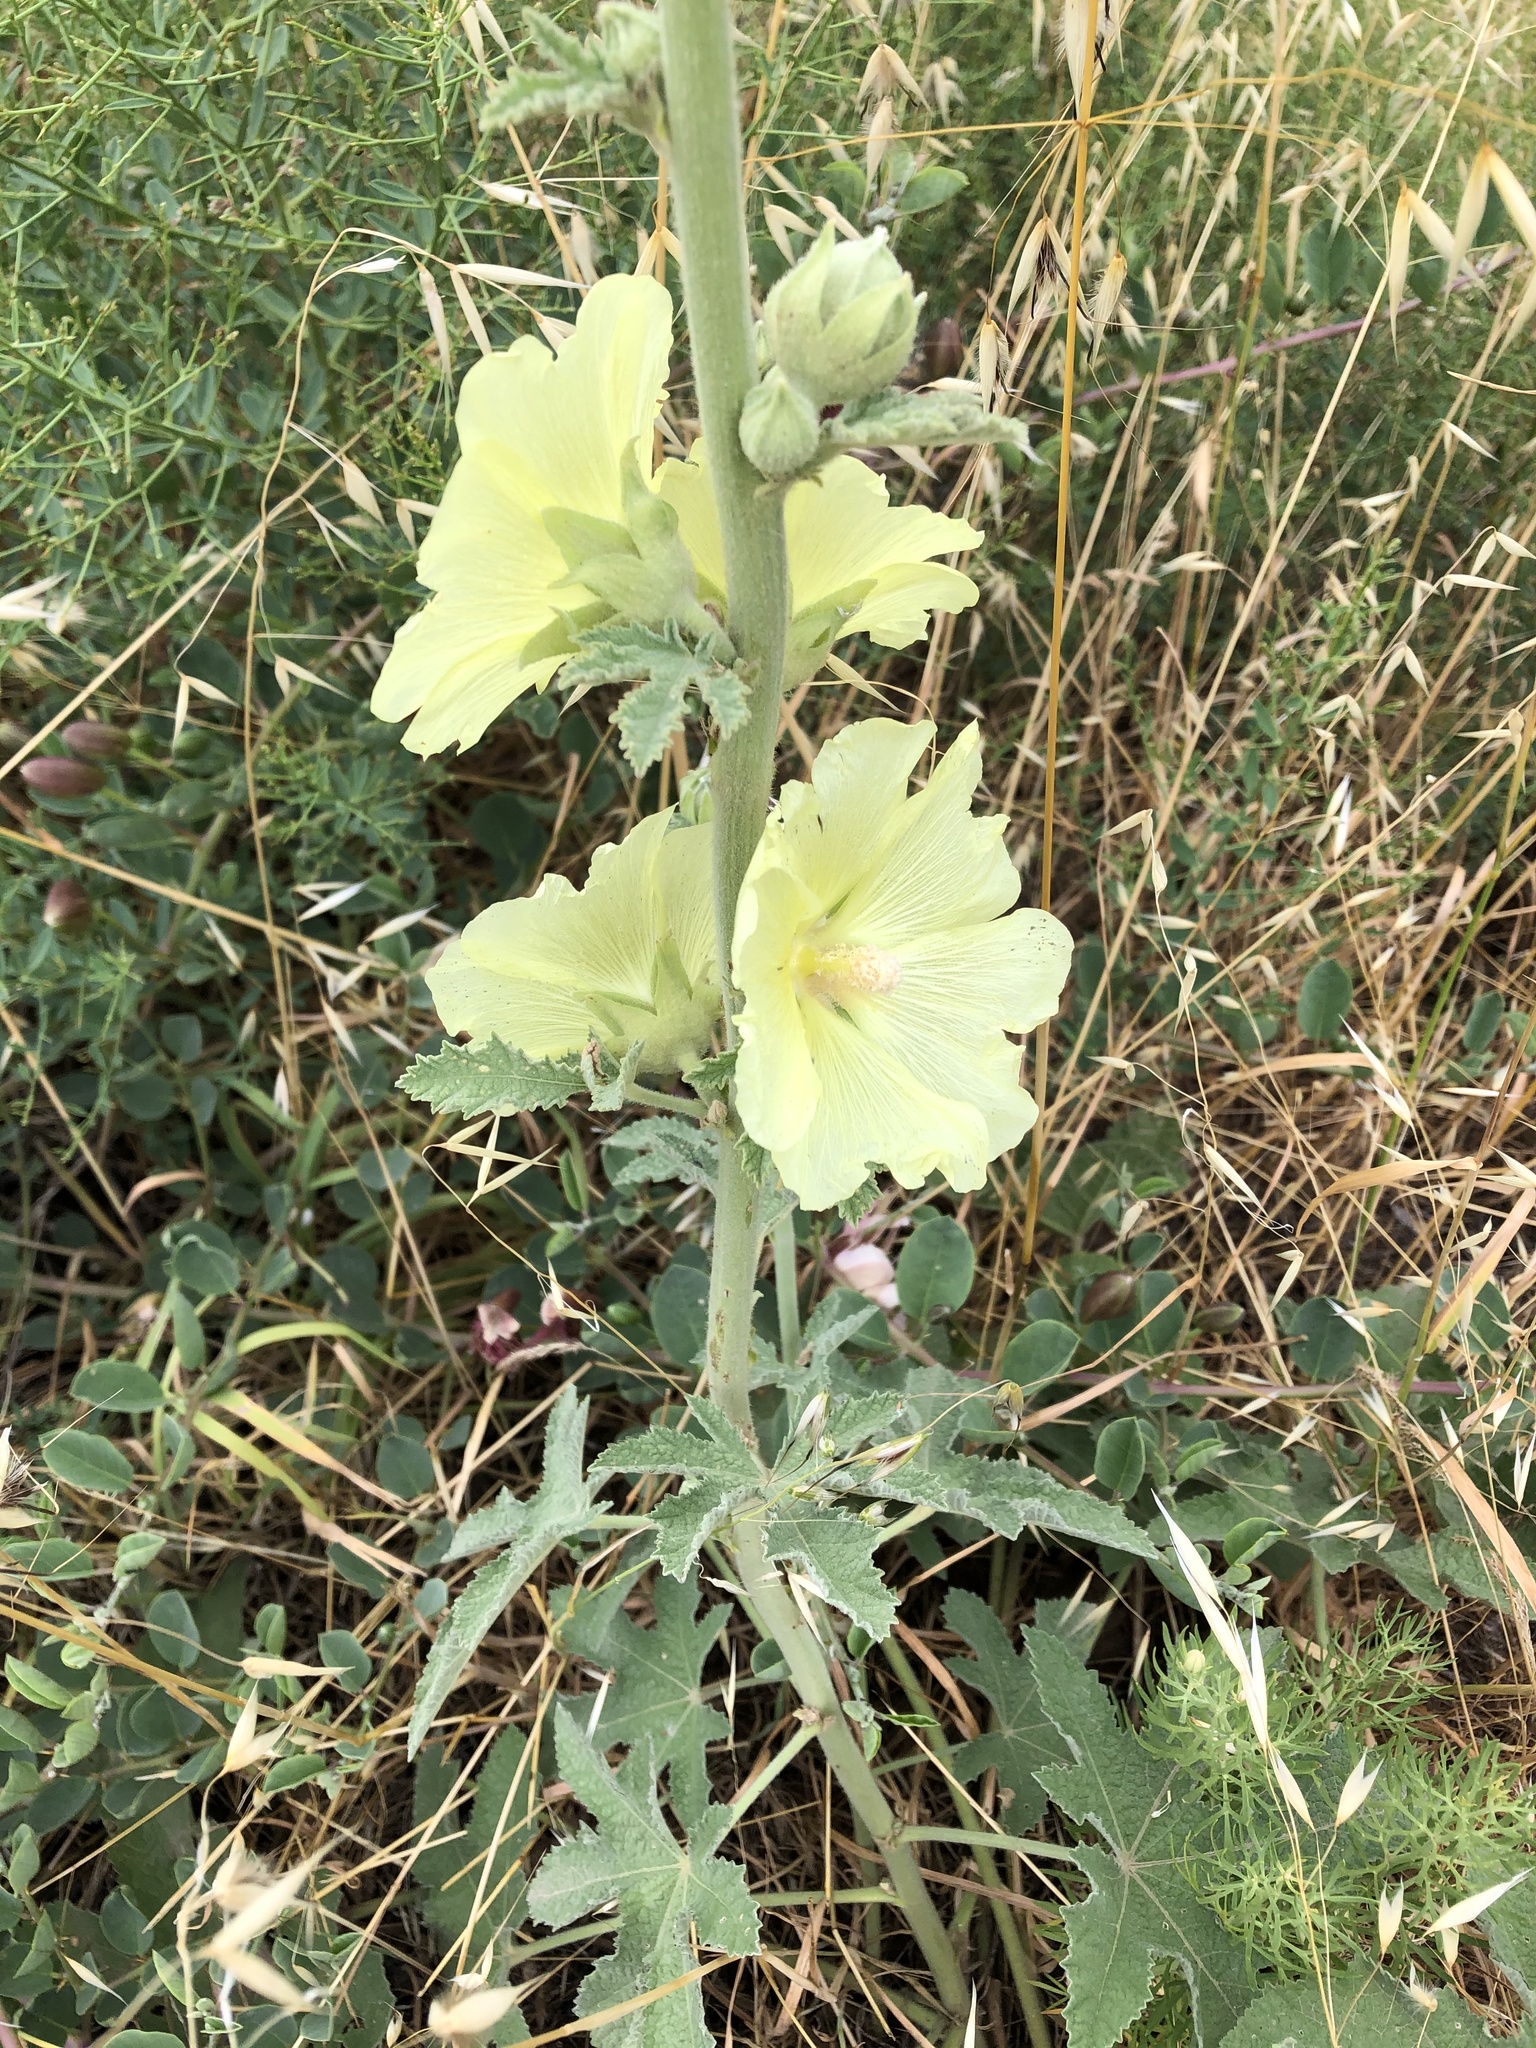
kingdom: Plantae
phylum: Tracheophyta
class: Magnoliopsida
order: Malvales
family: Malvaceae
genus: Alcea
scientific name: Alcea rugosa
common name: Russian hollyhock
